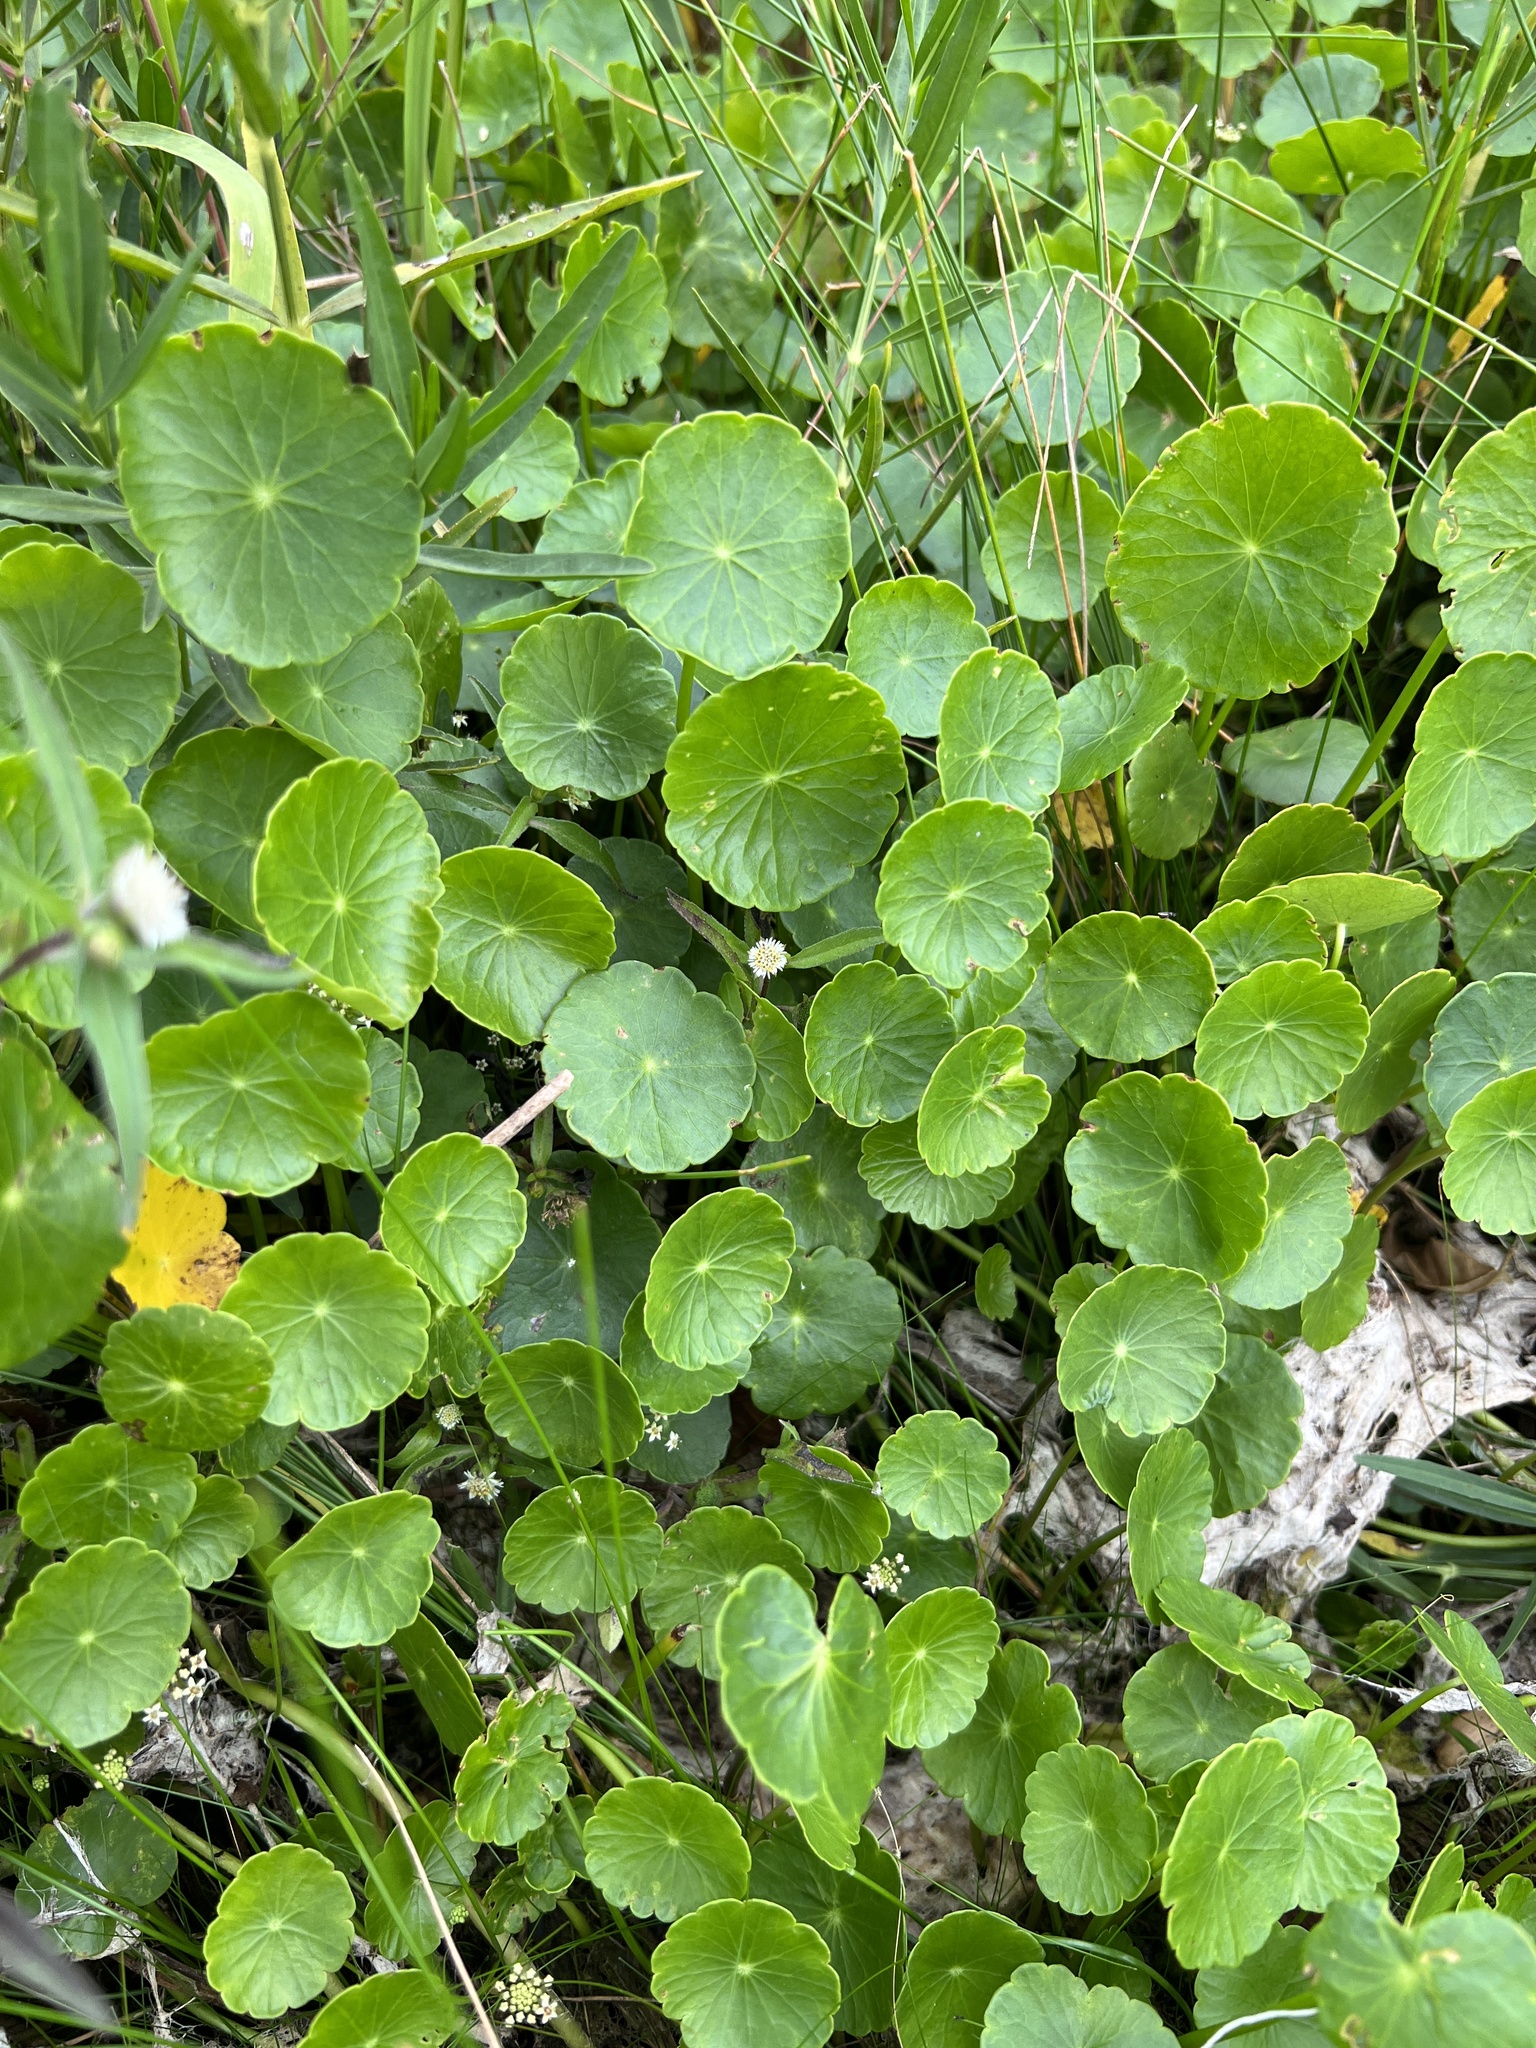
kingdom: Plantae
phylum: Tracheophyta
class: Magnoliopsida
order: Apiales
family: Araliaceae
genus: Hydrocotyle
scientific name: Hydrocotyle umbellata
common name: Water pennywort
